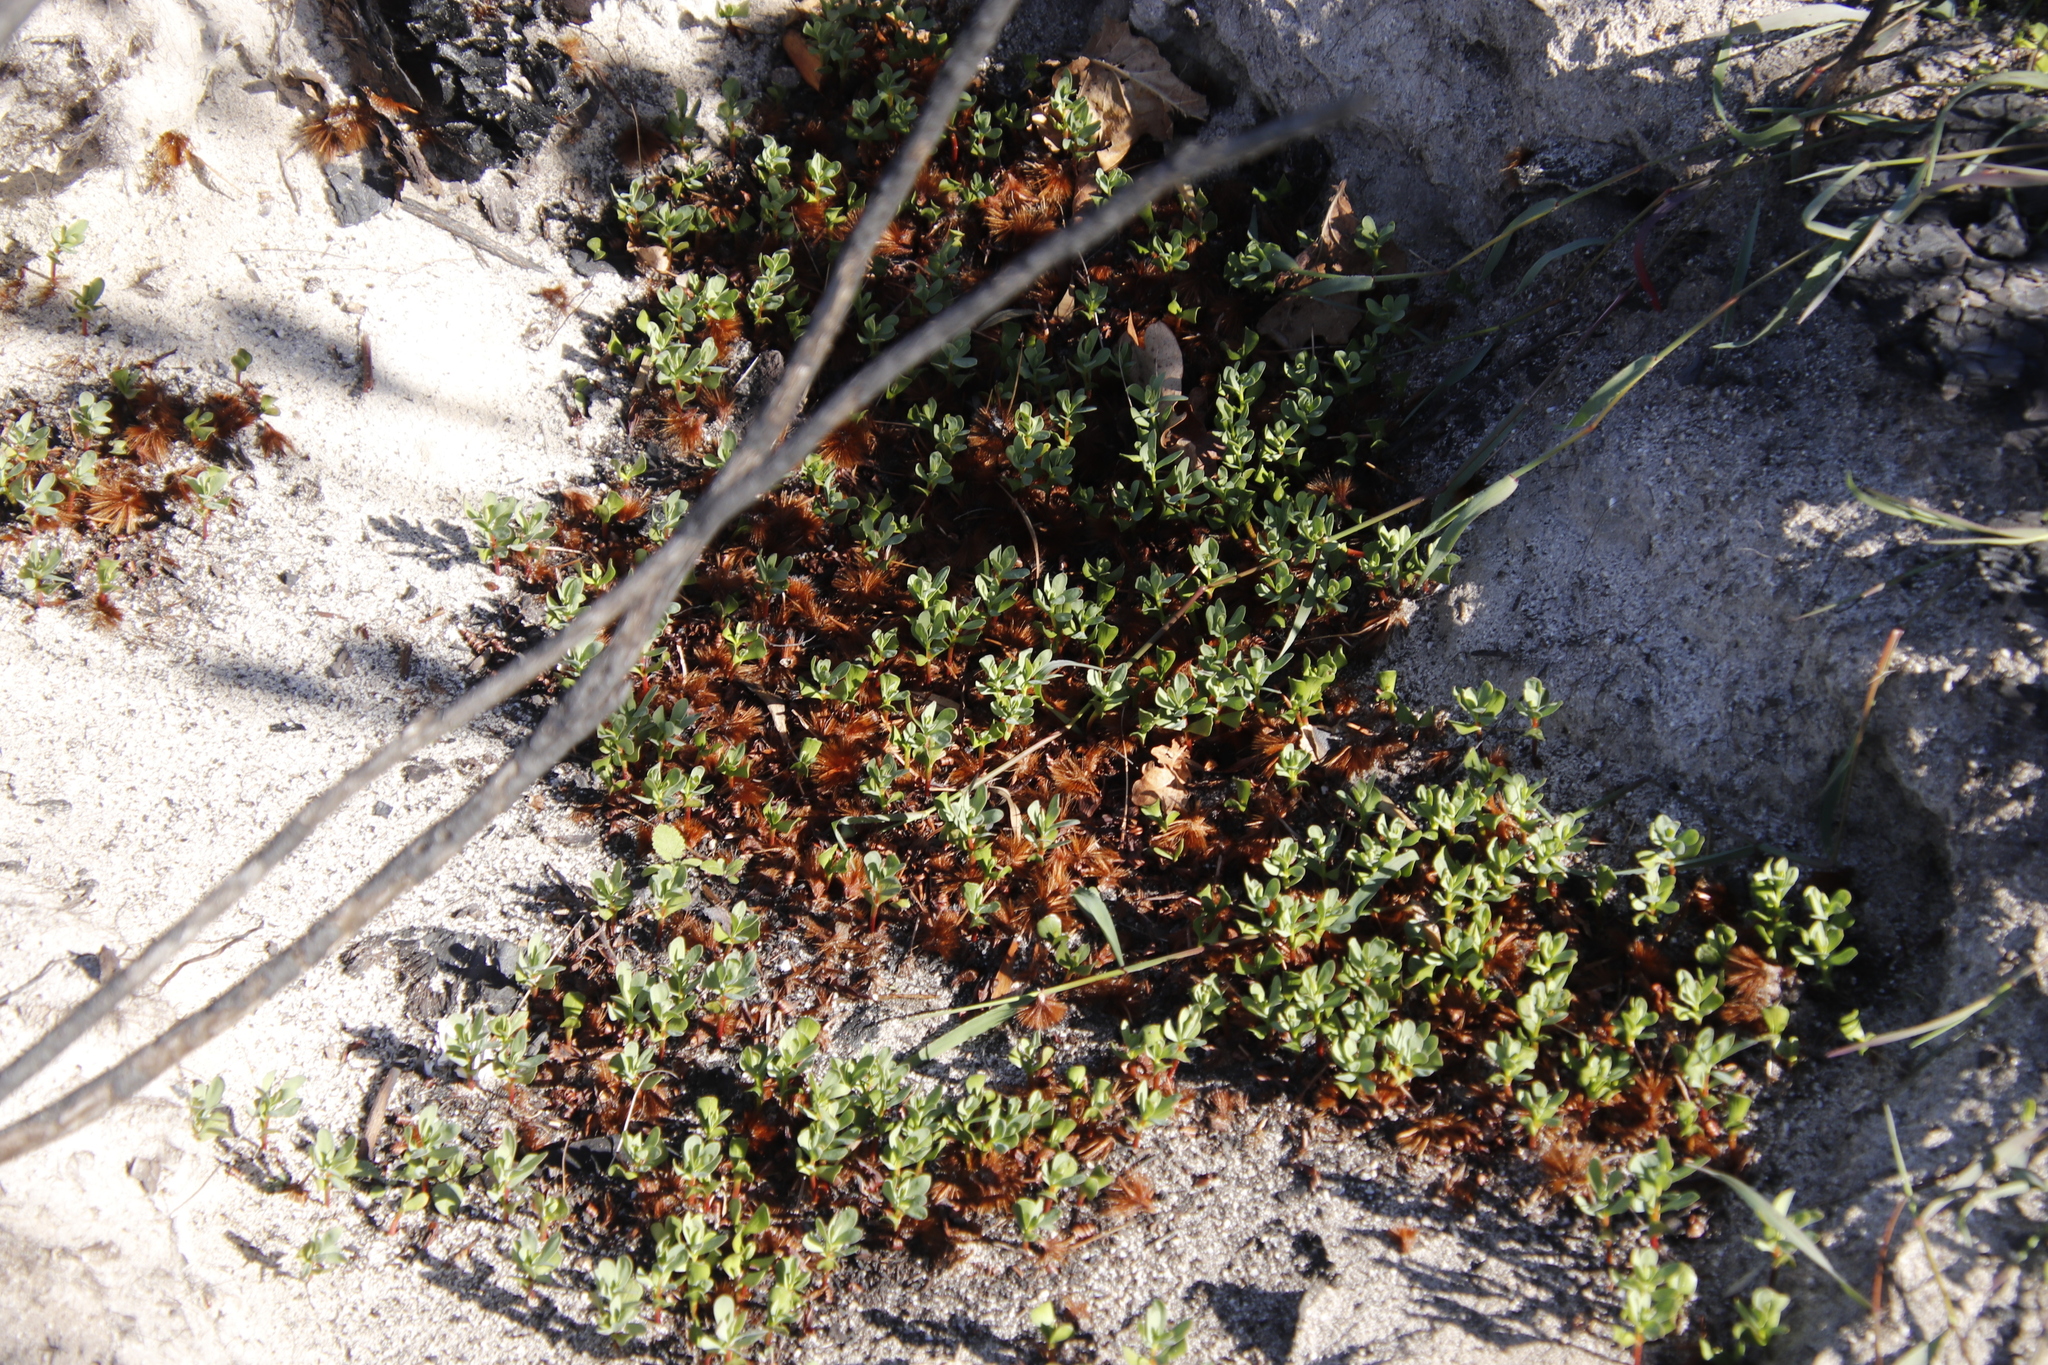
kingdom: Plantae
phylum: Tracheophyta
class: Magnoliopsida
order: Proteales
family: Proteaceae
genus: Protea
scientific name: Protea repens
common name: Sugarbush
